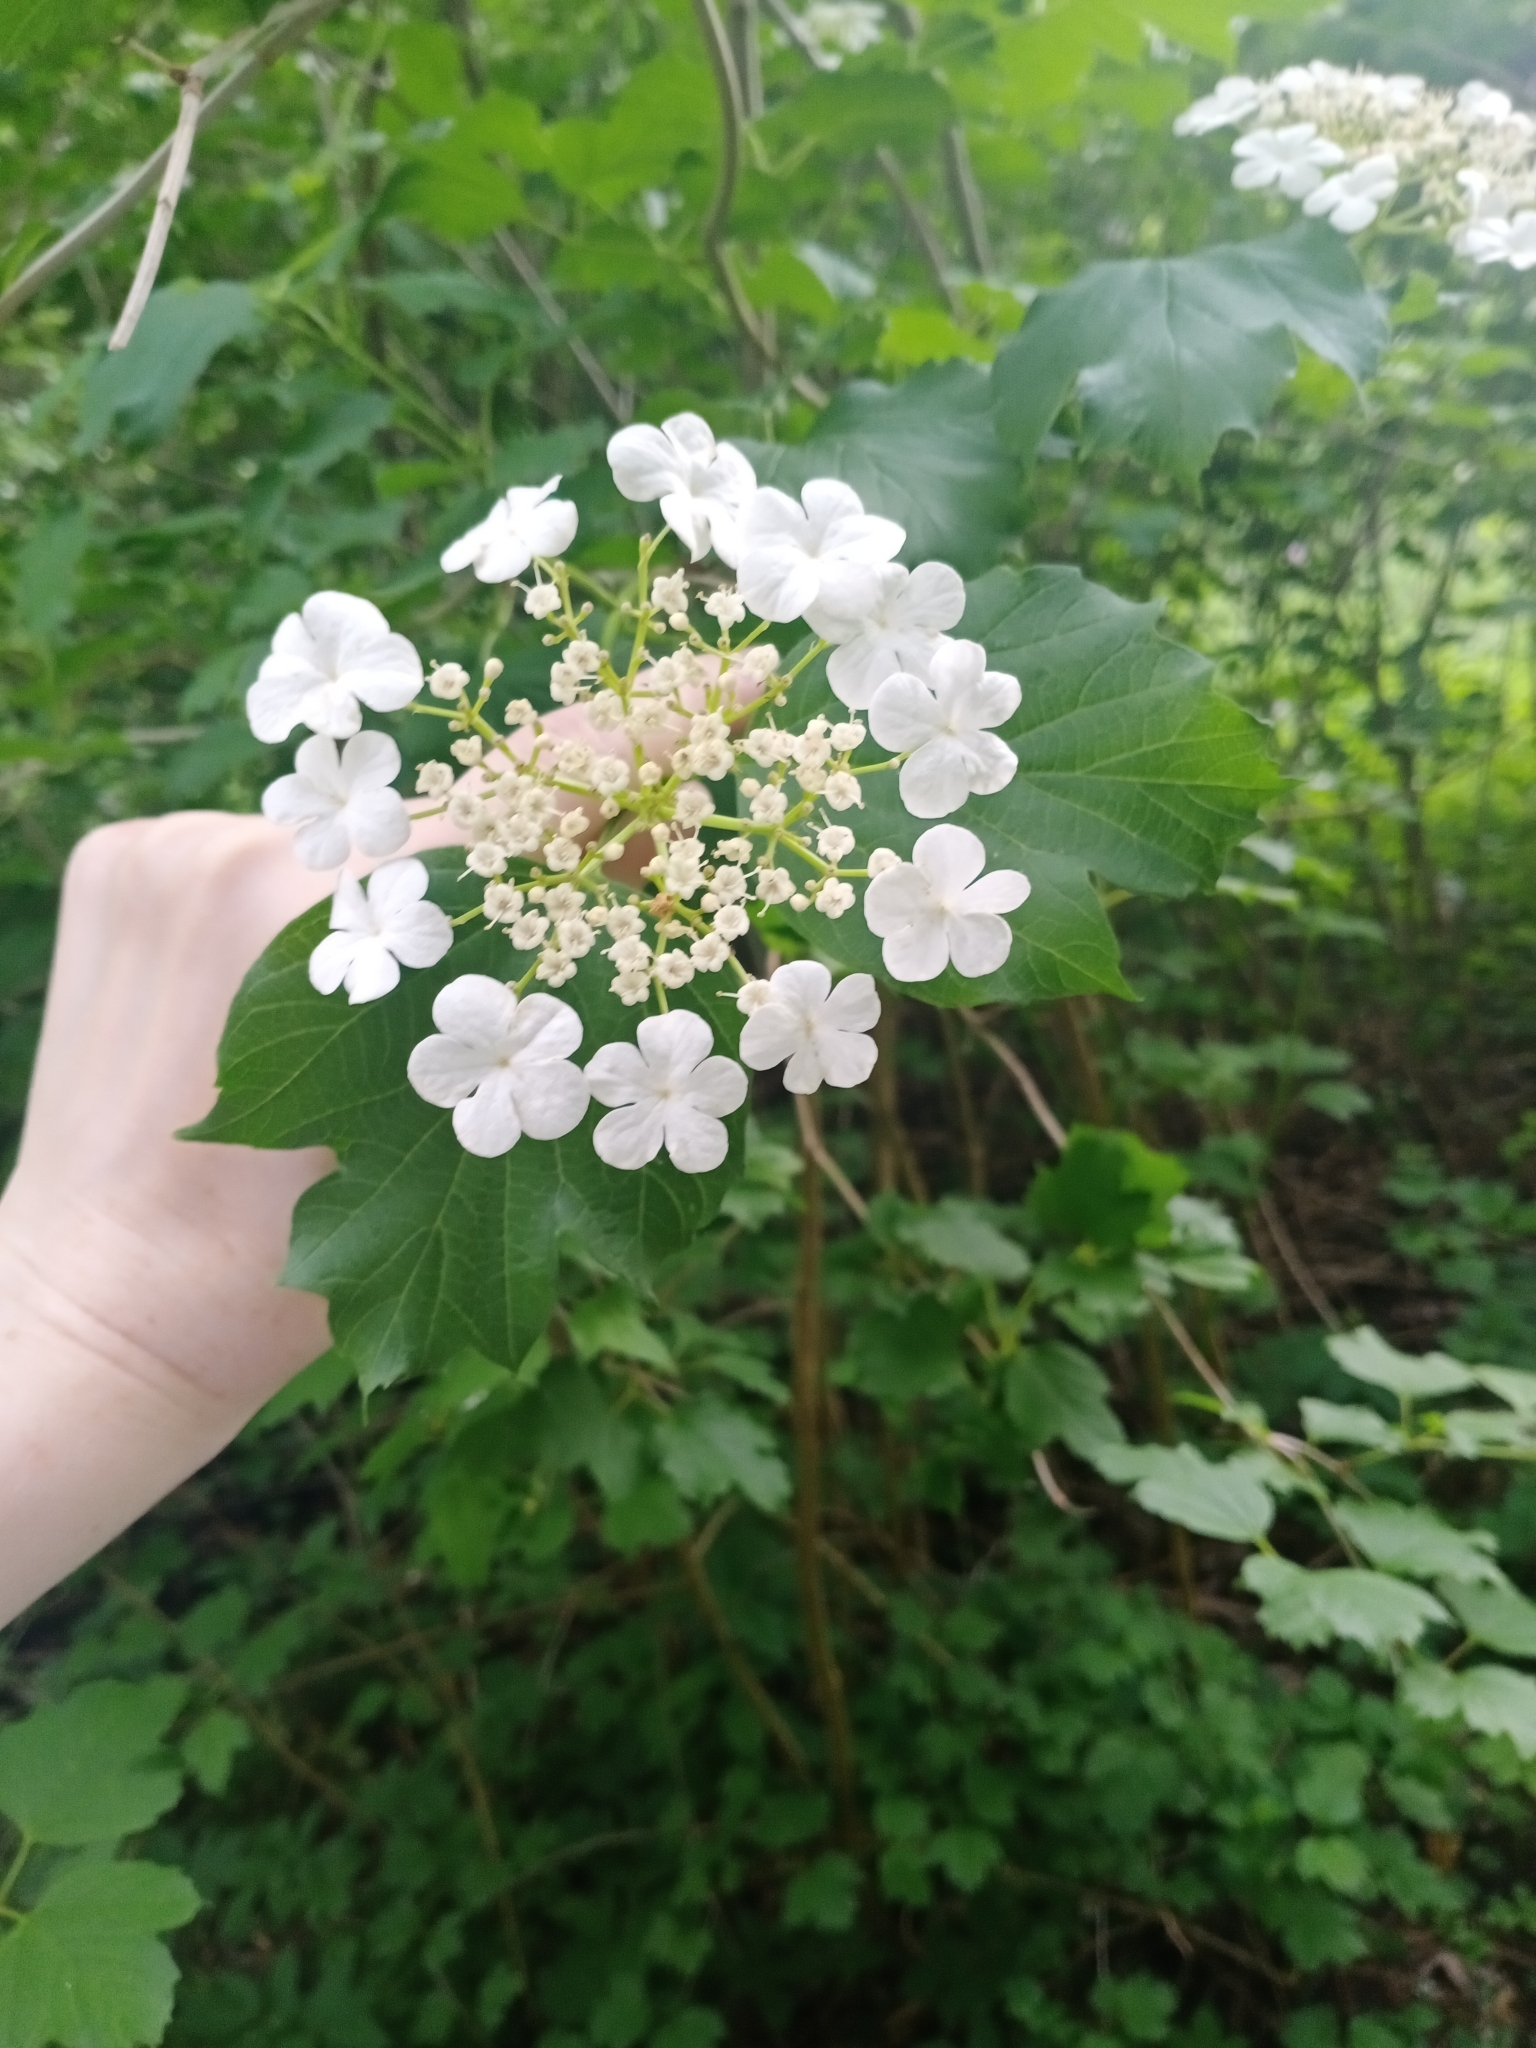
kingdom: Plantae
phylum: Tracheophyta
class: Magnoliopsida
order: Dipsacales
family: Viburnaceae
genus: Viburnum
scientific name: Viburnum opulus
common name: Guelder-rose
